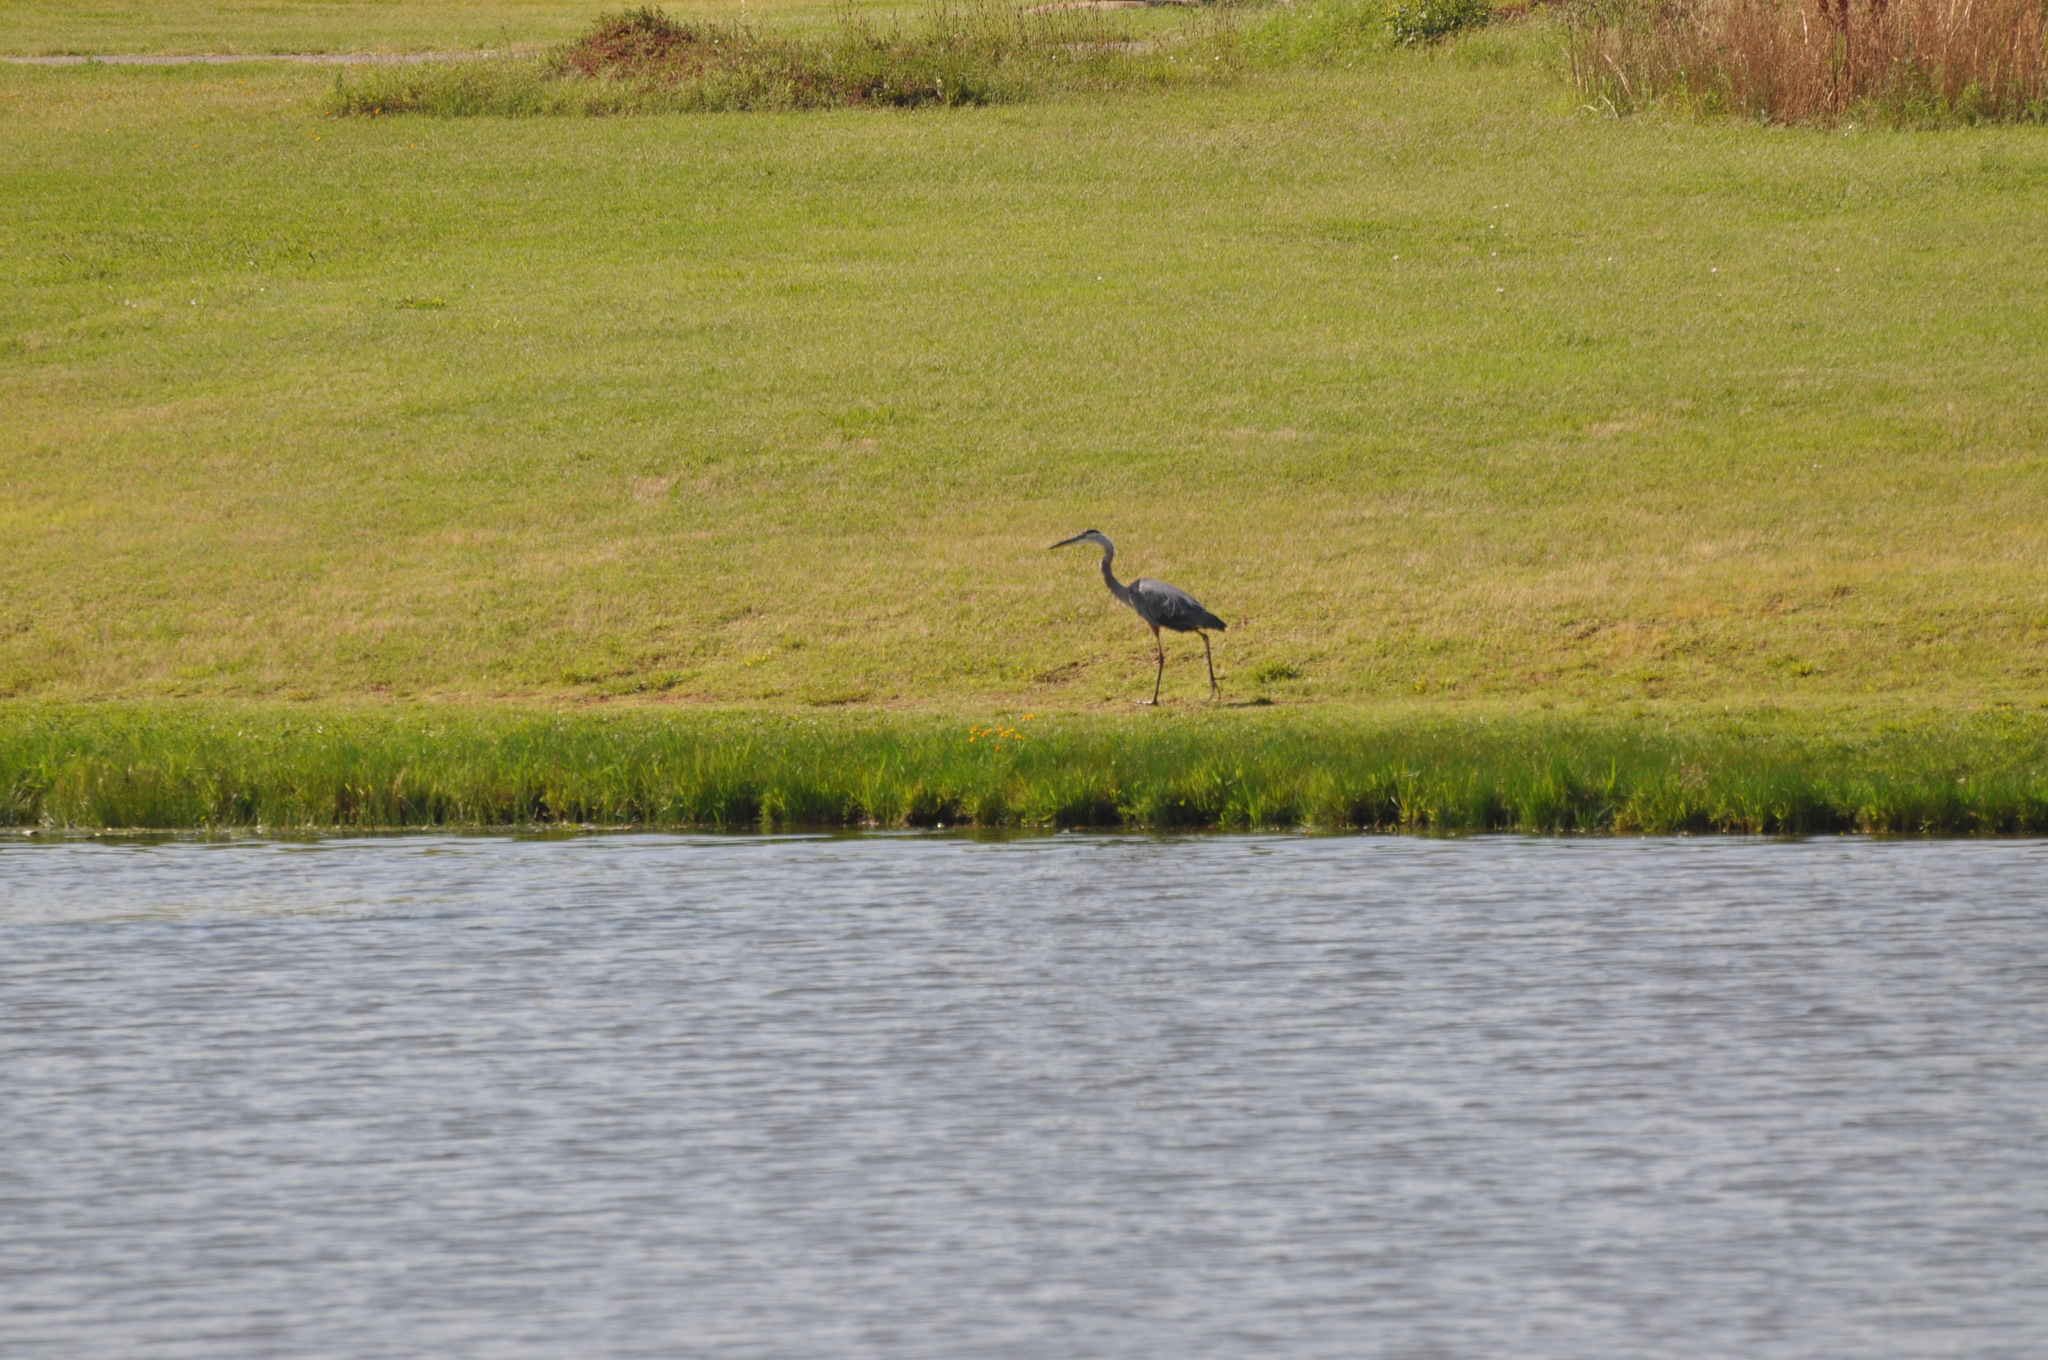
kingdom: Animalia
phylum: Chordata
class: Aves
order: Pelecaniformes
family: Ardeidae
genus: Ardea
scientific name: Ardea herodias
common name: Great blue heron
